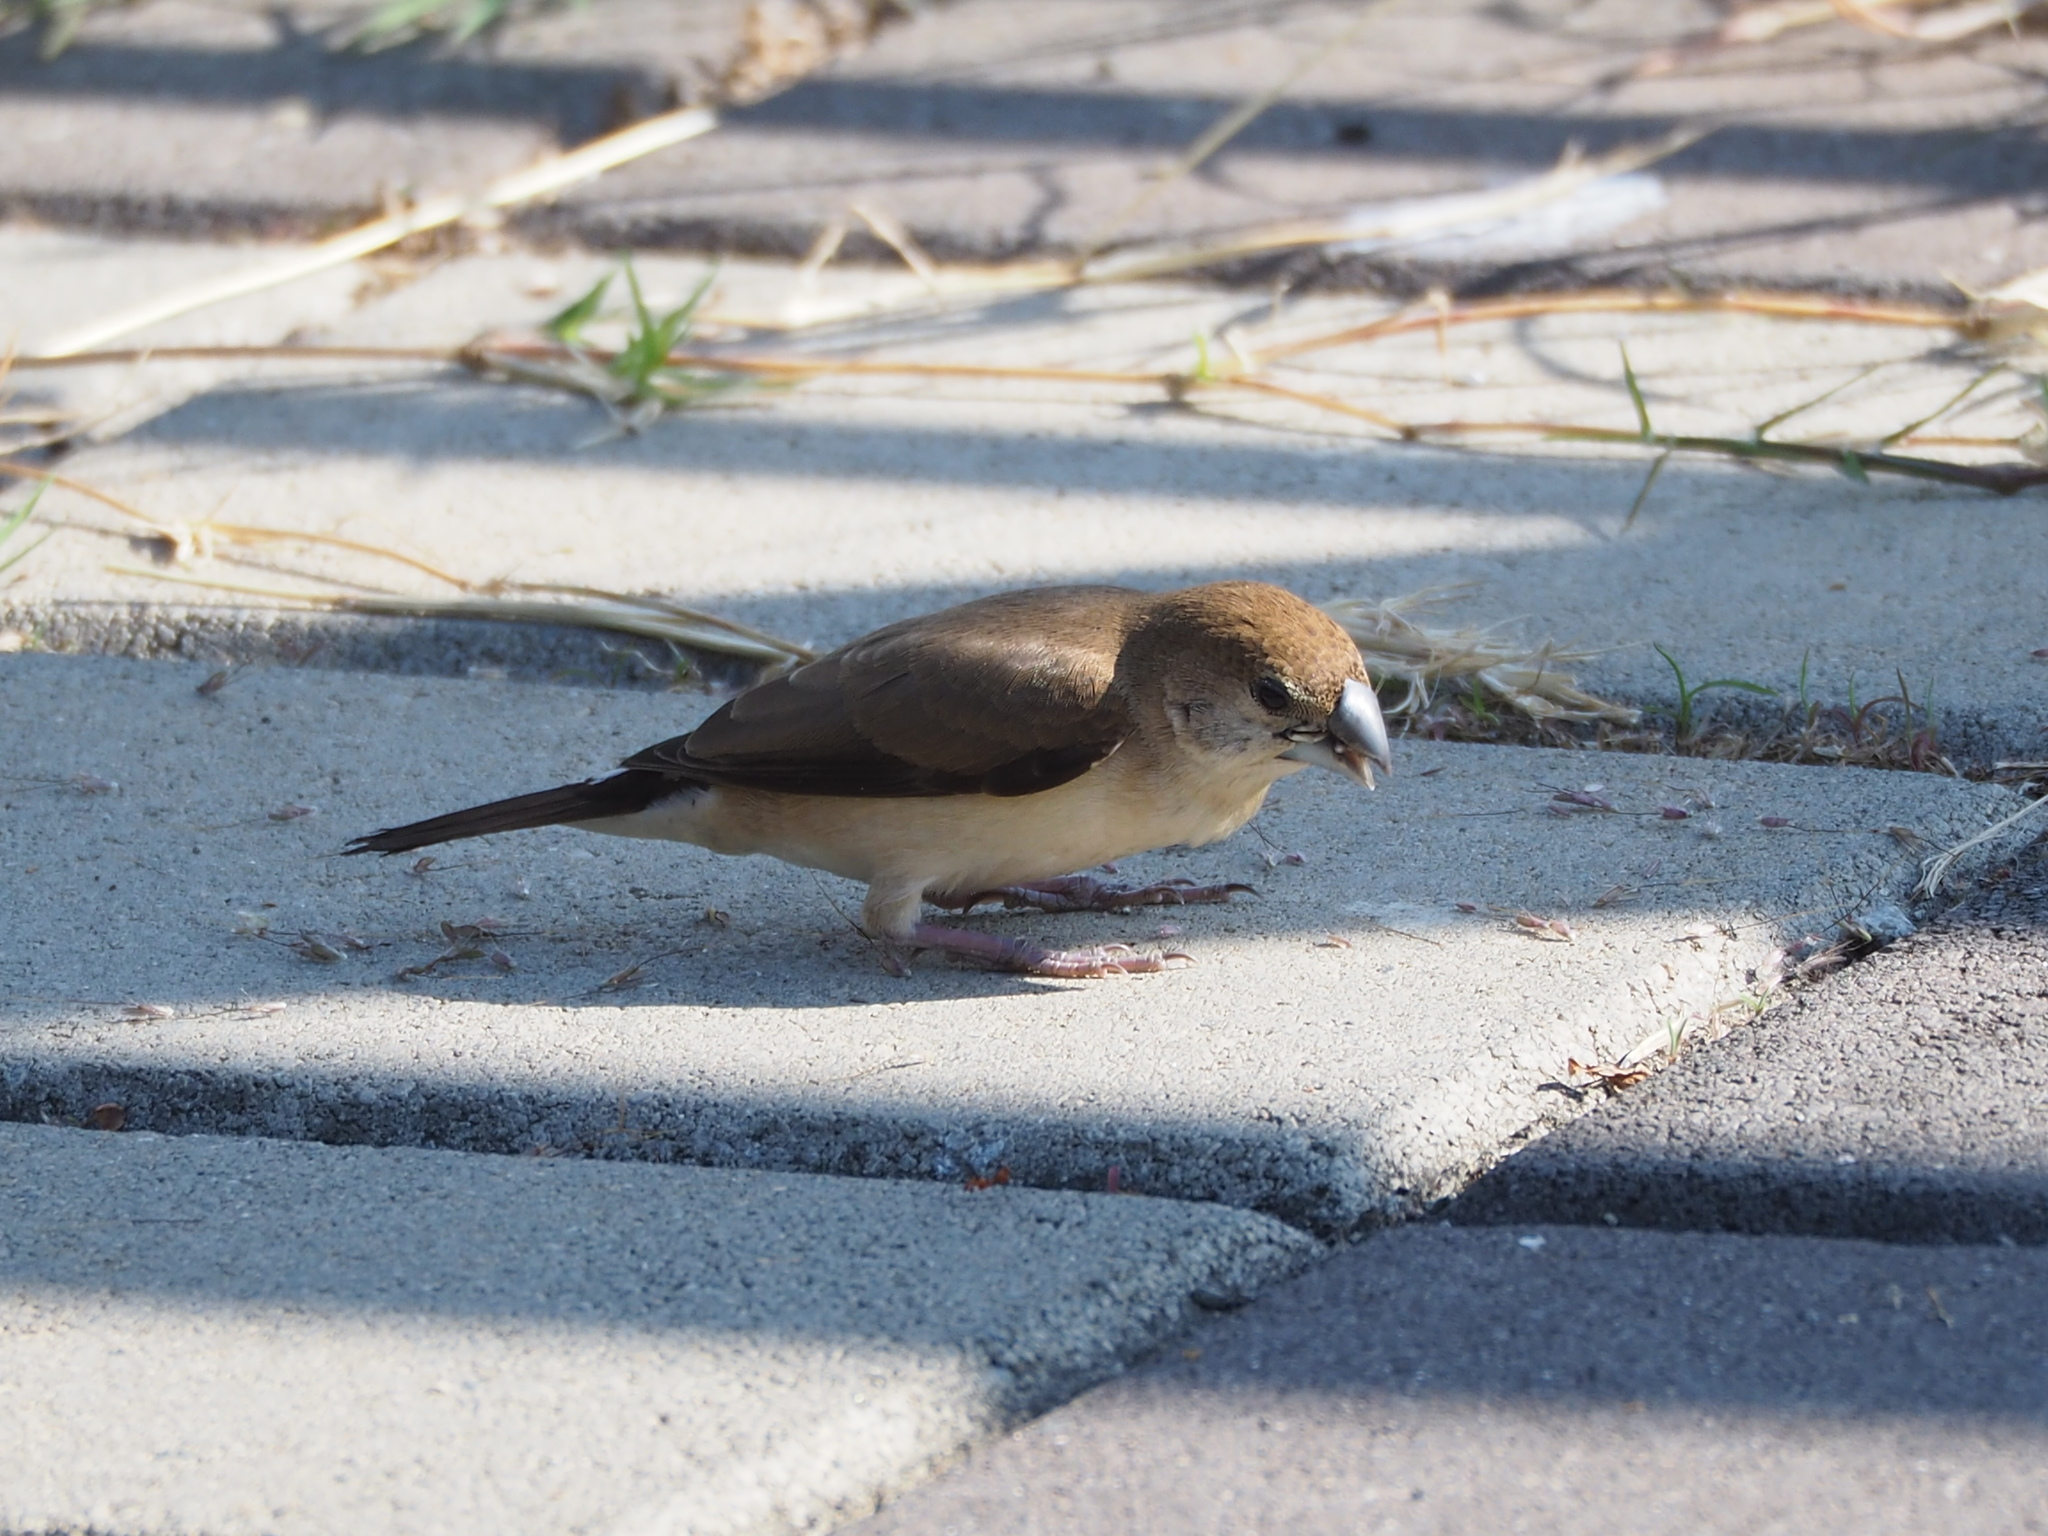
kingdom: Animalia
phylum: Chordata
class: Aves
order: Passeriformes
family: Estrildidae
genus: Euodice
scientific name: Euodice malabarica
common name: Indian silverbill
